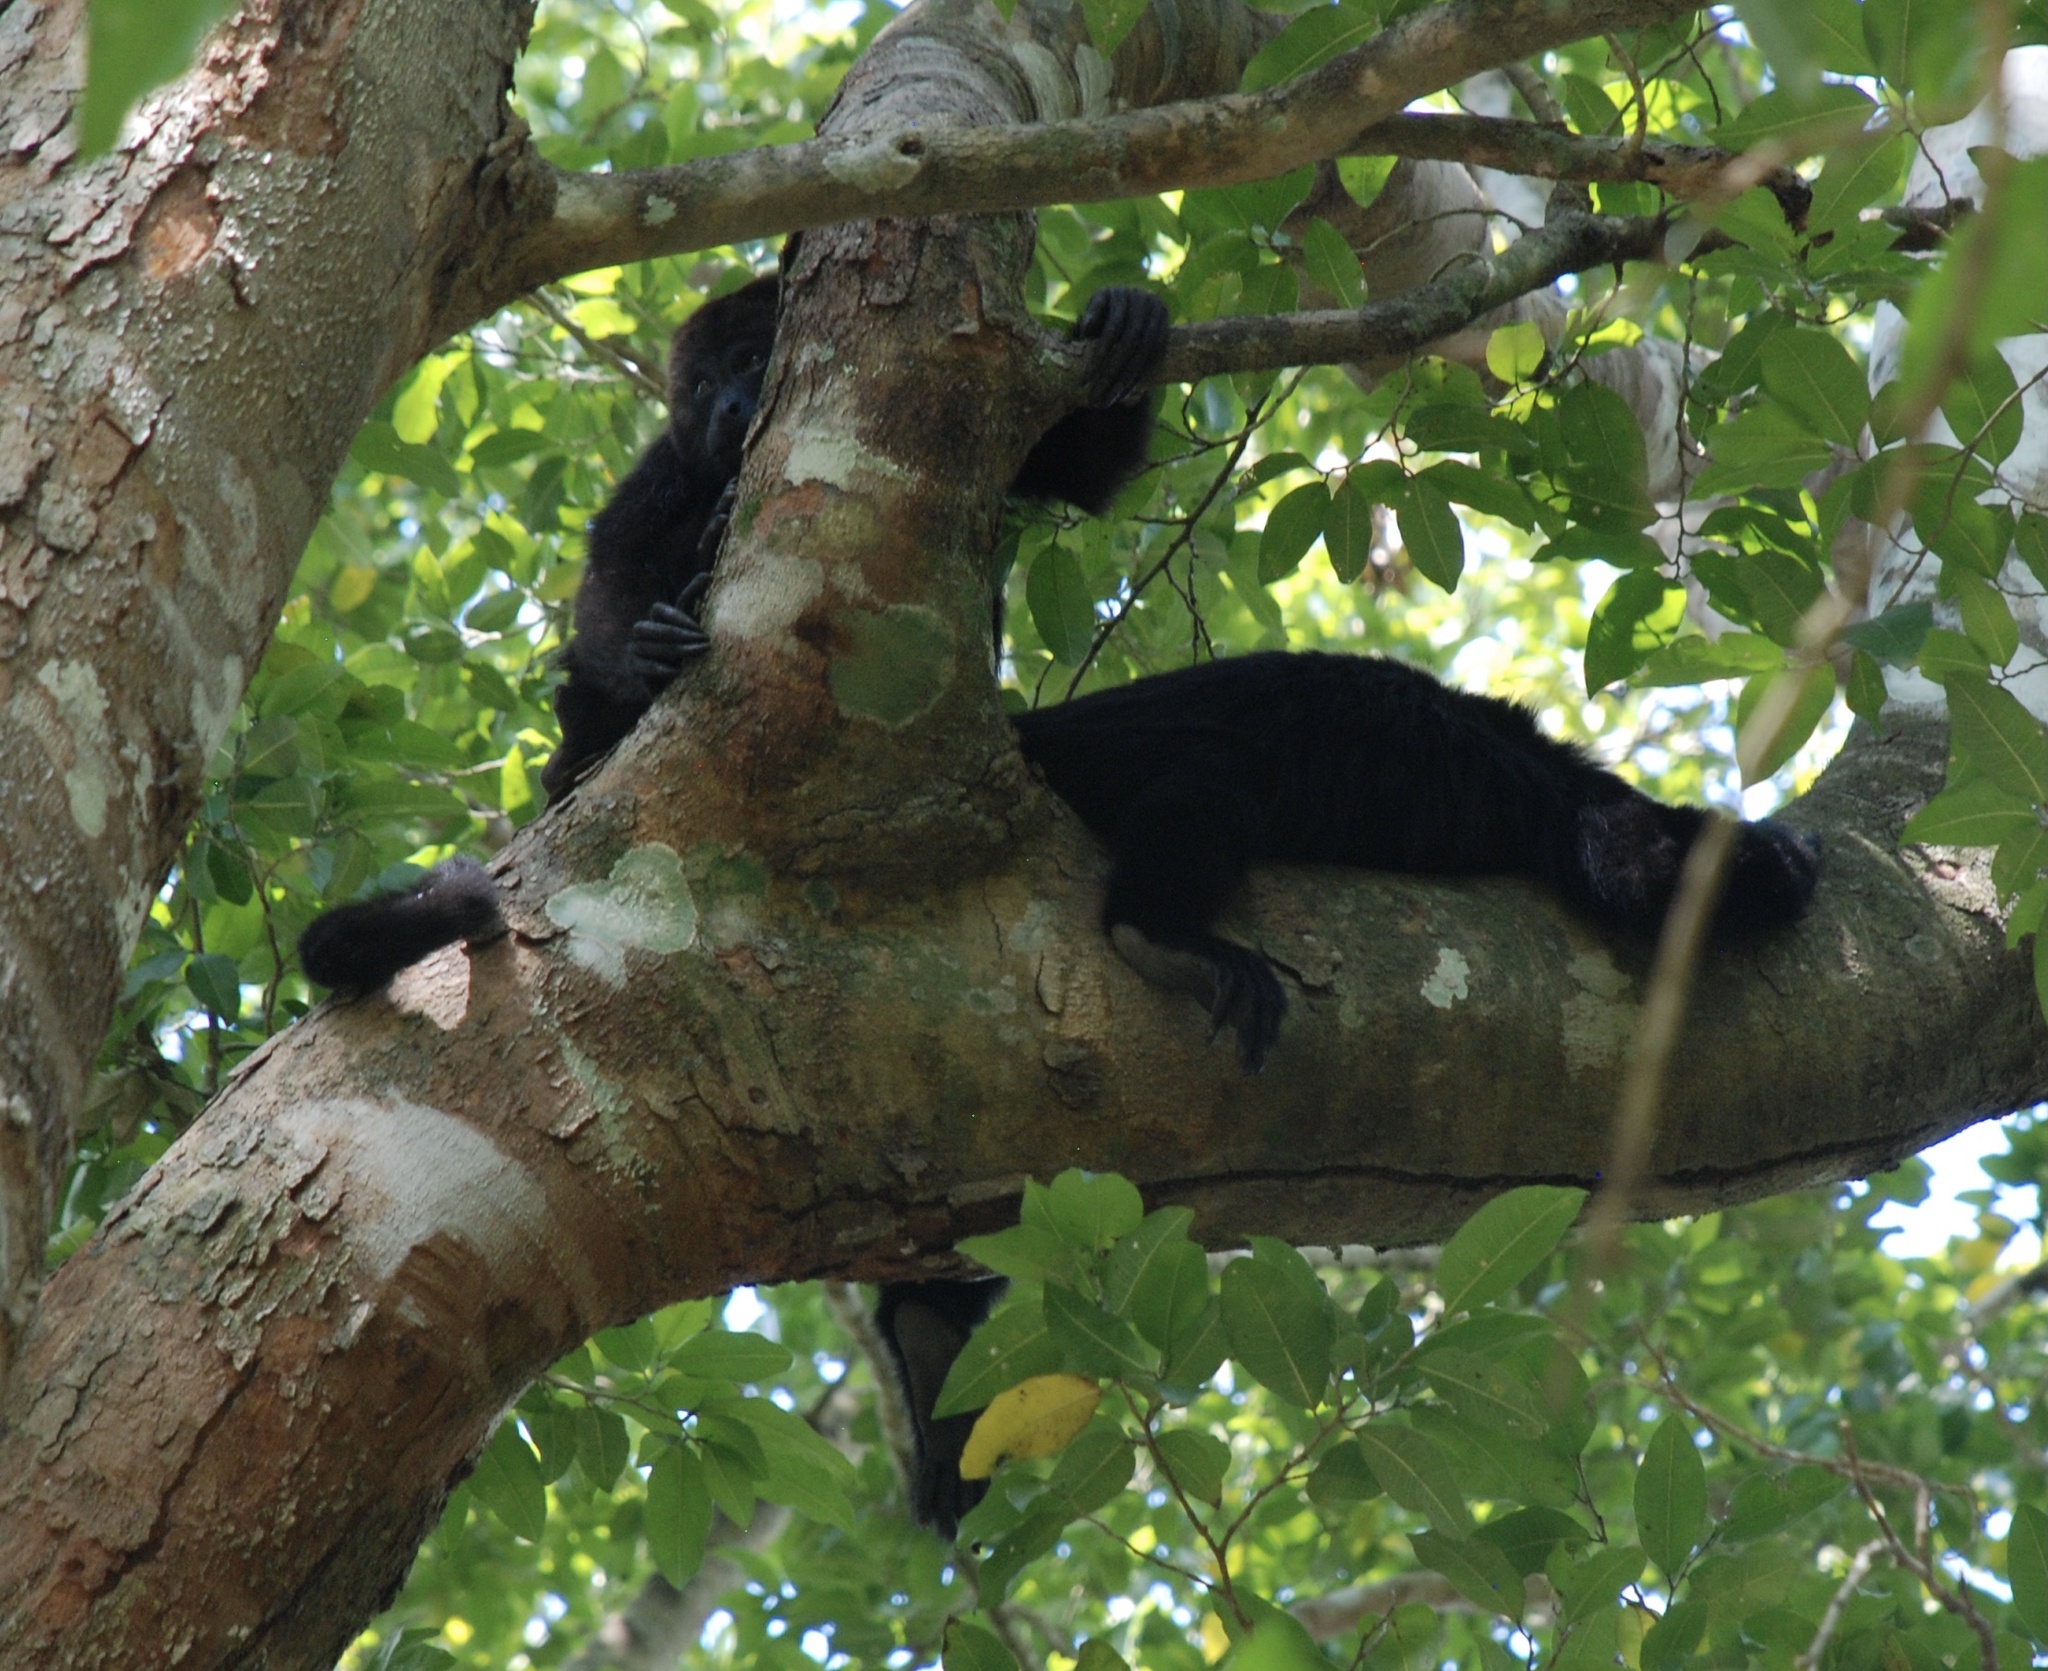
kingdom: Animalia
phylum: Chordata
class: Mammalia
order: Primates
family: Atelidae
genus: Alouatta
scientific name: Alouatta pigra
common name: Guatemalan black howler
